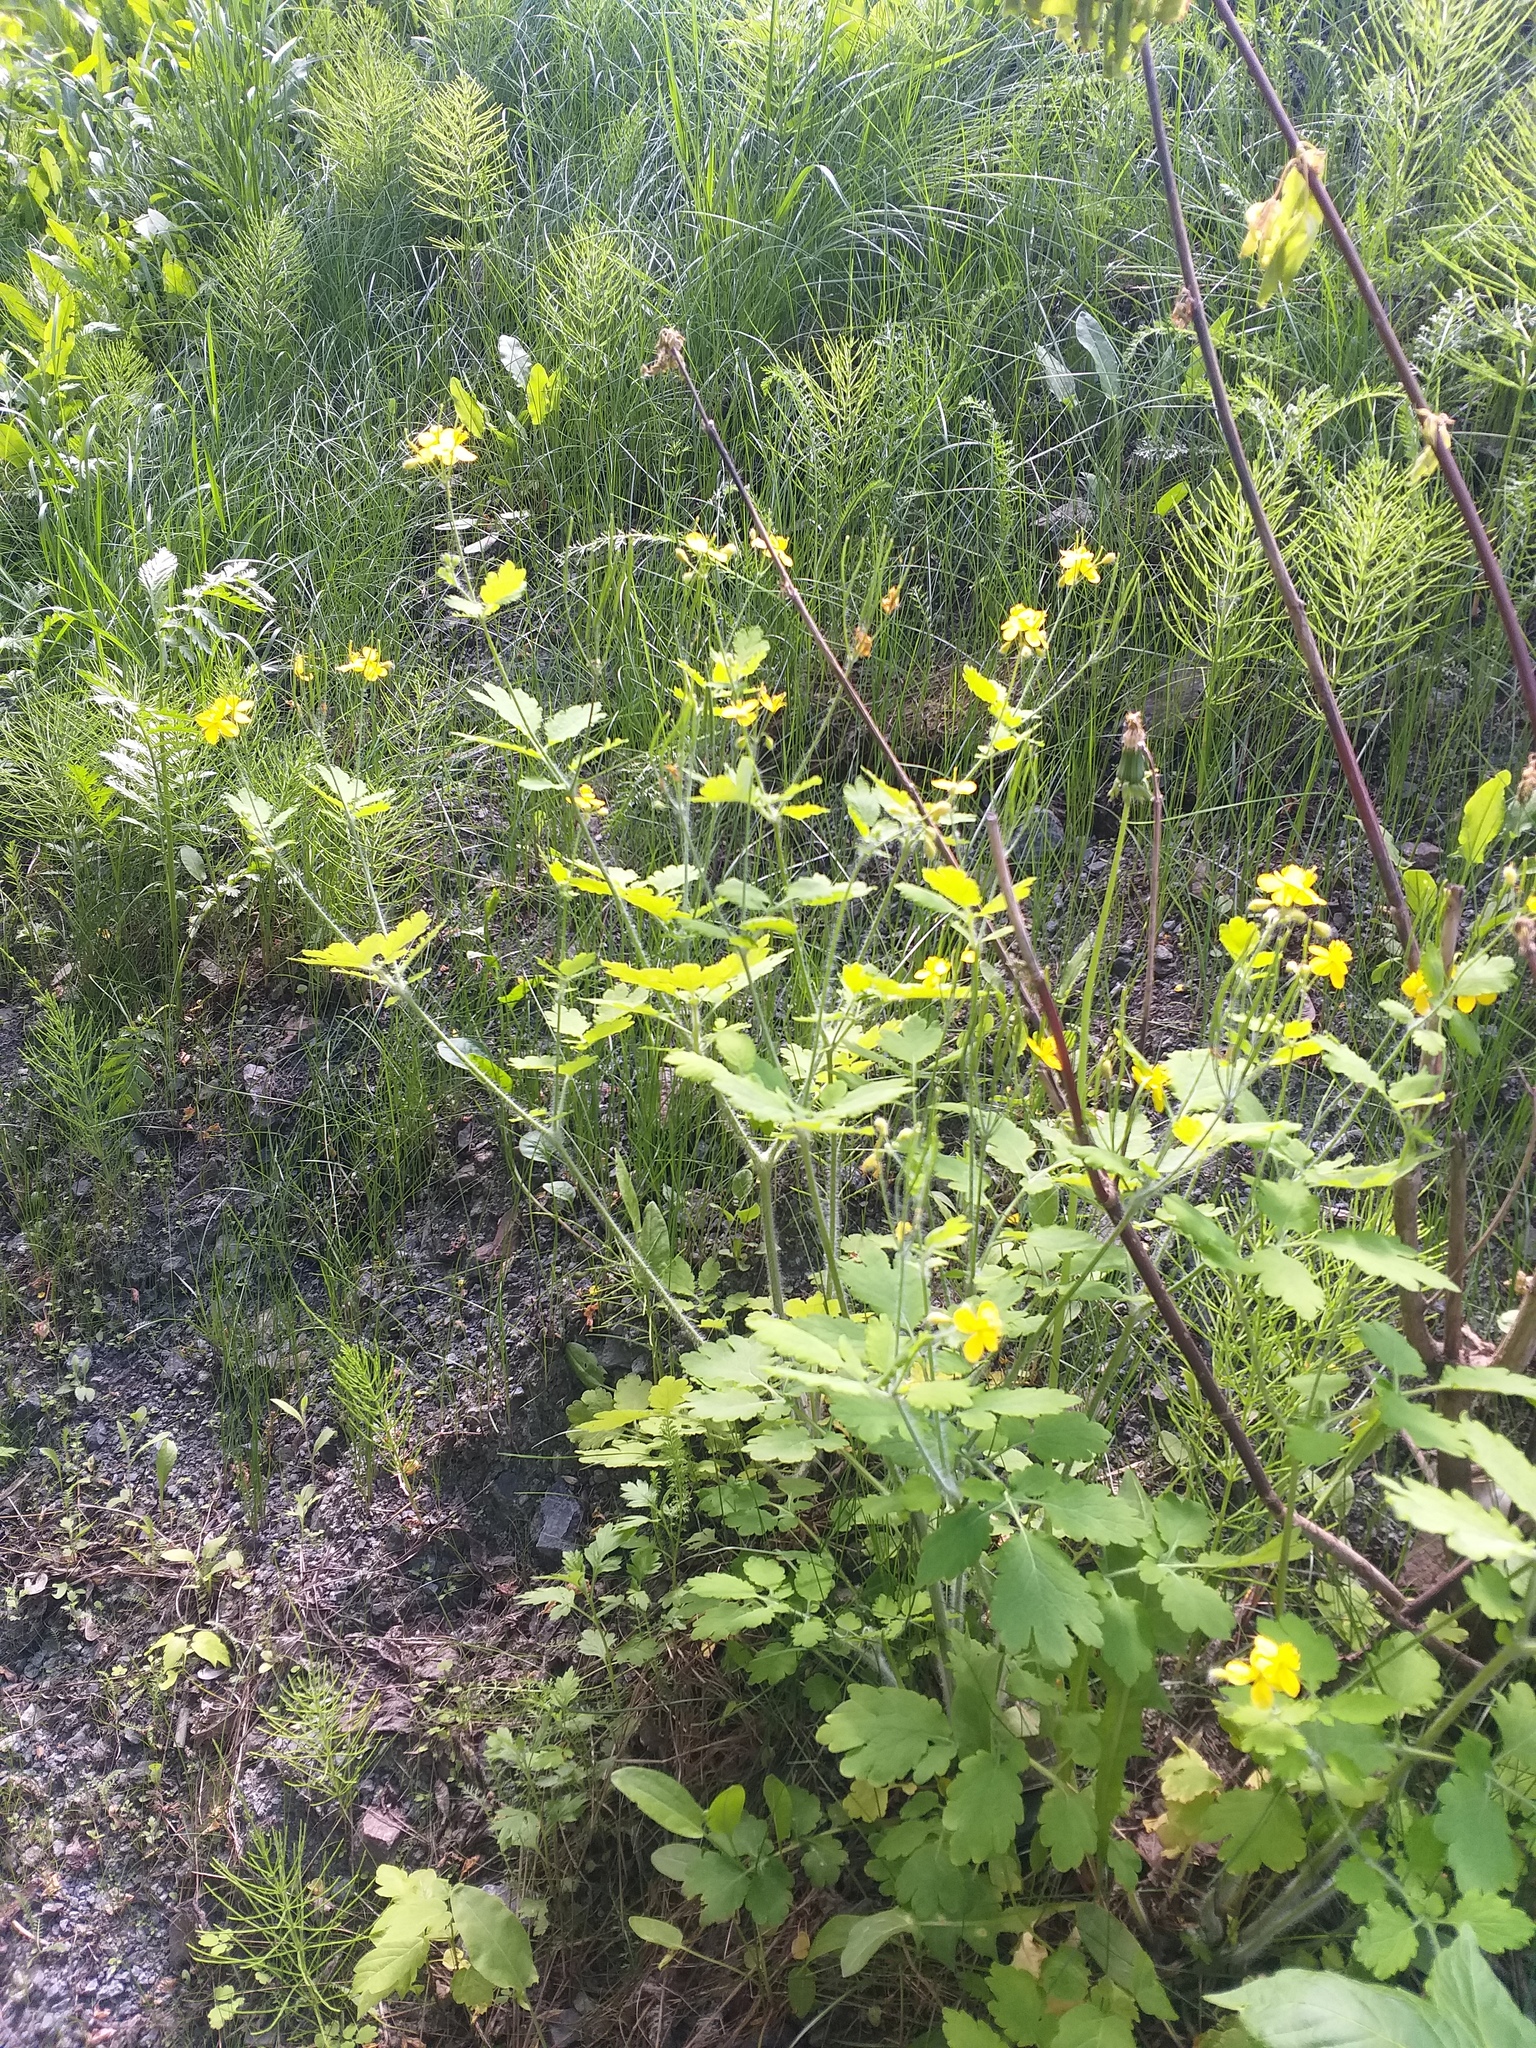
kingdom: Plantae
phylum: Tracheophyta
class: Magnoliopsida
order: Ranunculales
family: Papaveraceae
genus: Chelidonium
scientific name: Chelidonium majus
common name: Greater celandine
